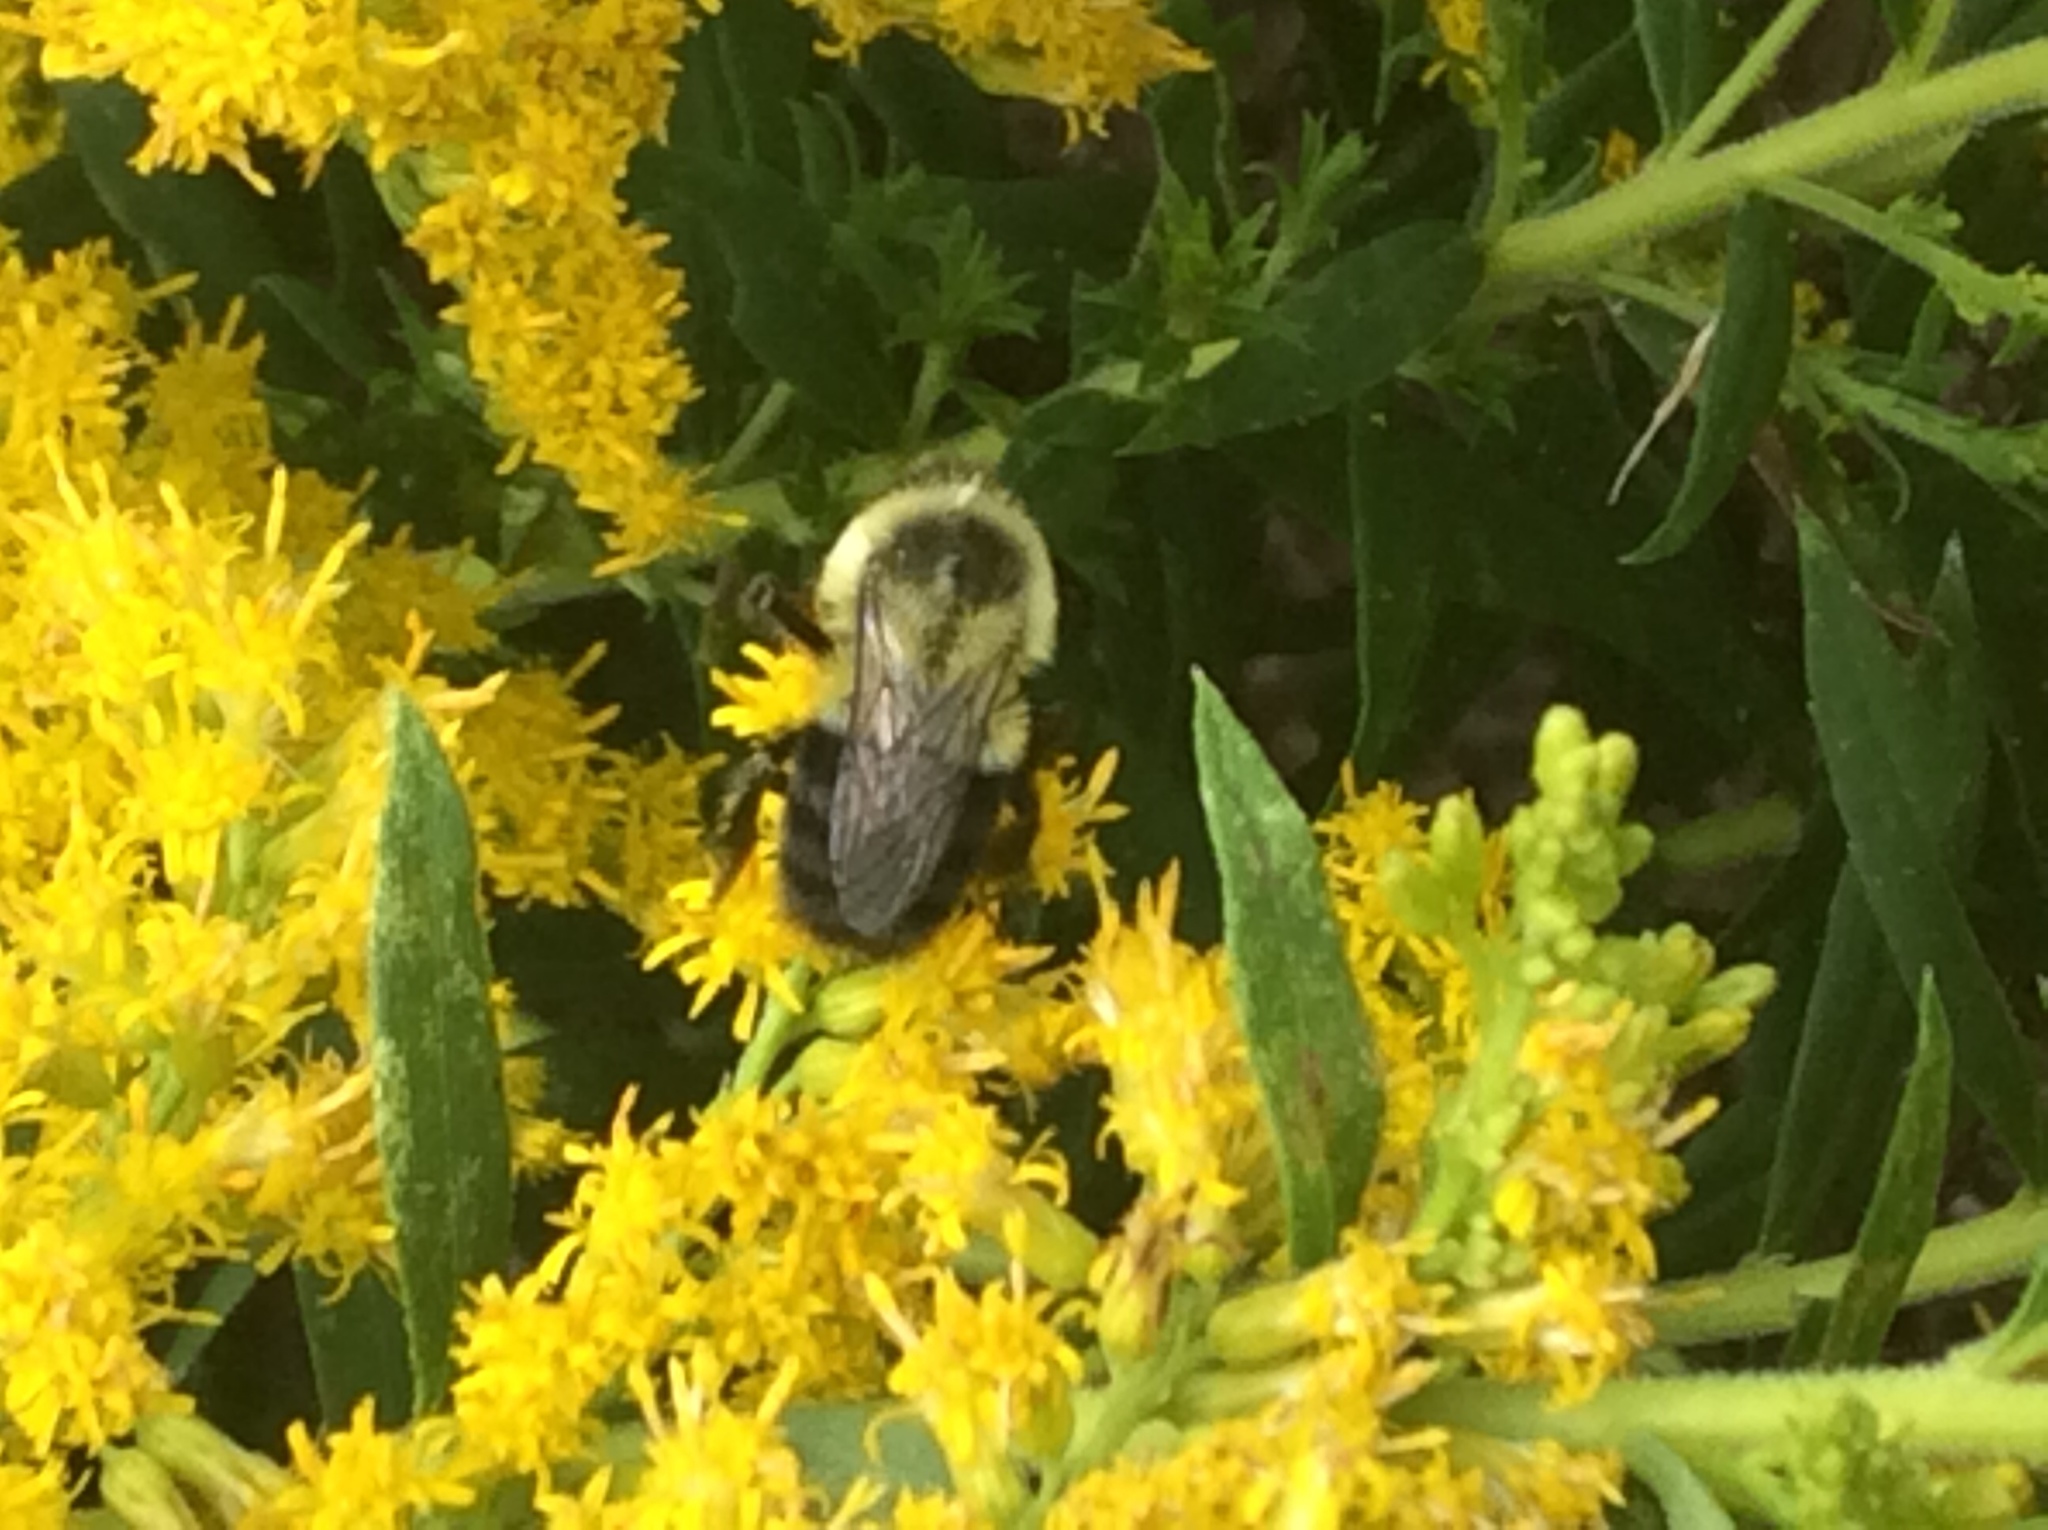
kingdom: Animalia
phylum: Arthropoda
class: Insecta
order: Hymenoptera
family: Apidae
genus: Bombus
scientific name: Bombus impatiens
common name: Common eastern bumble bee
